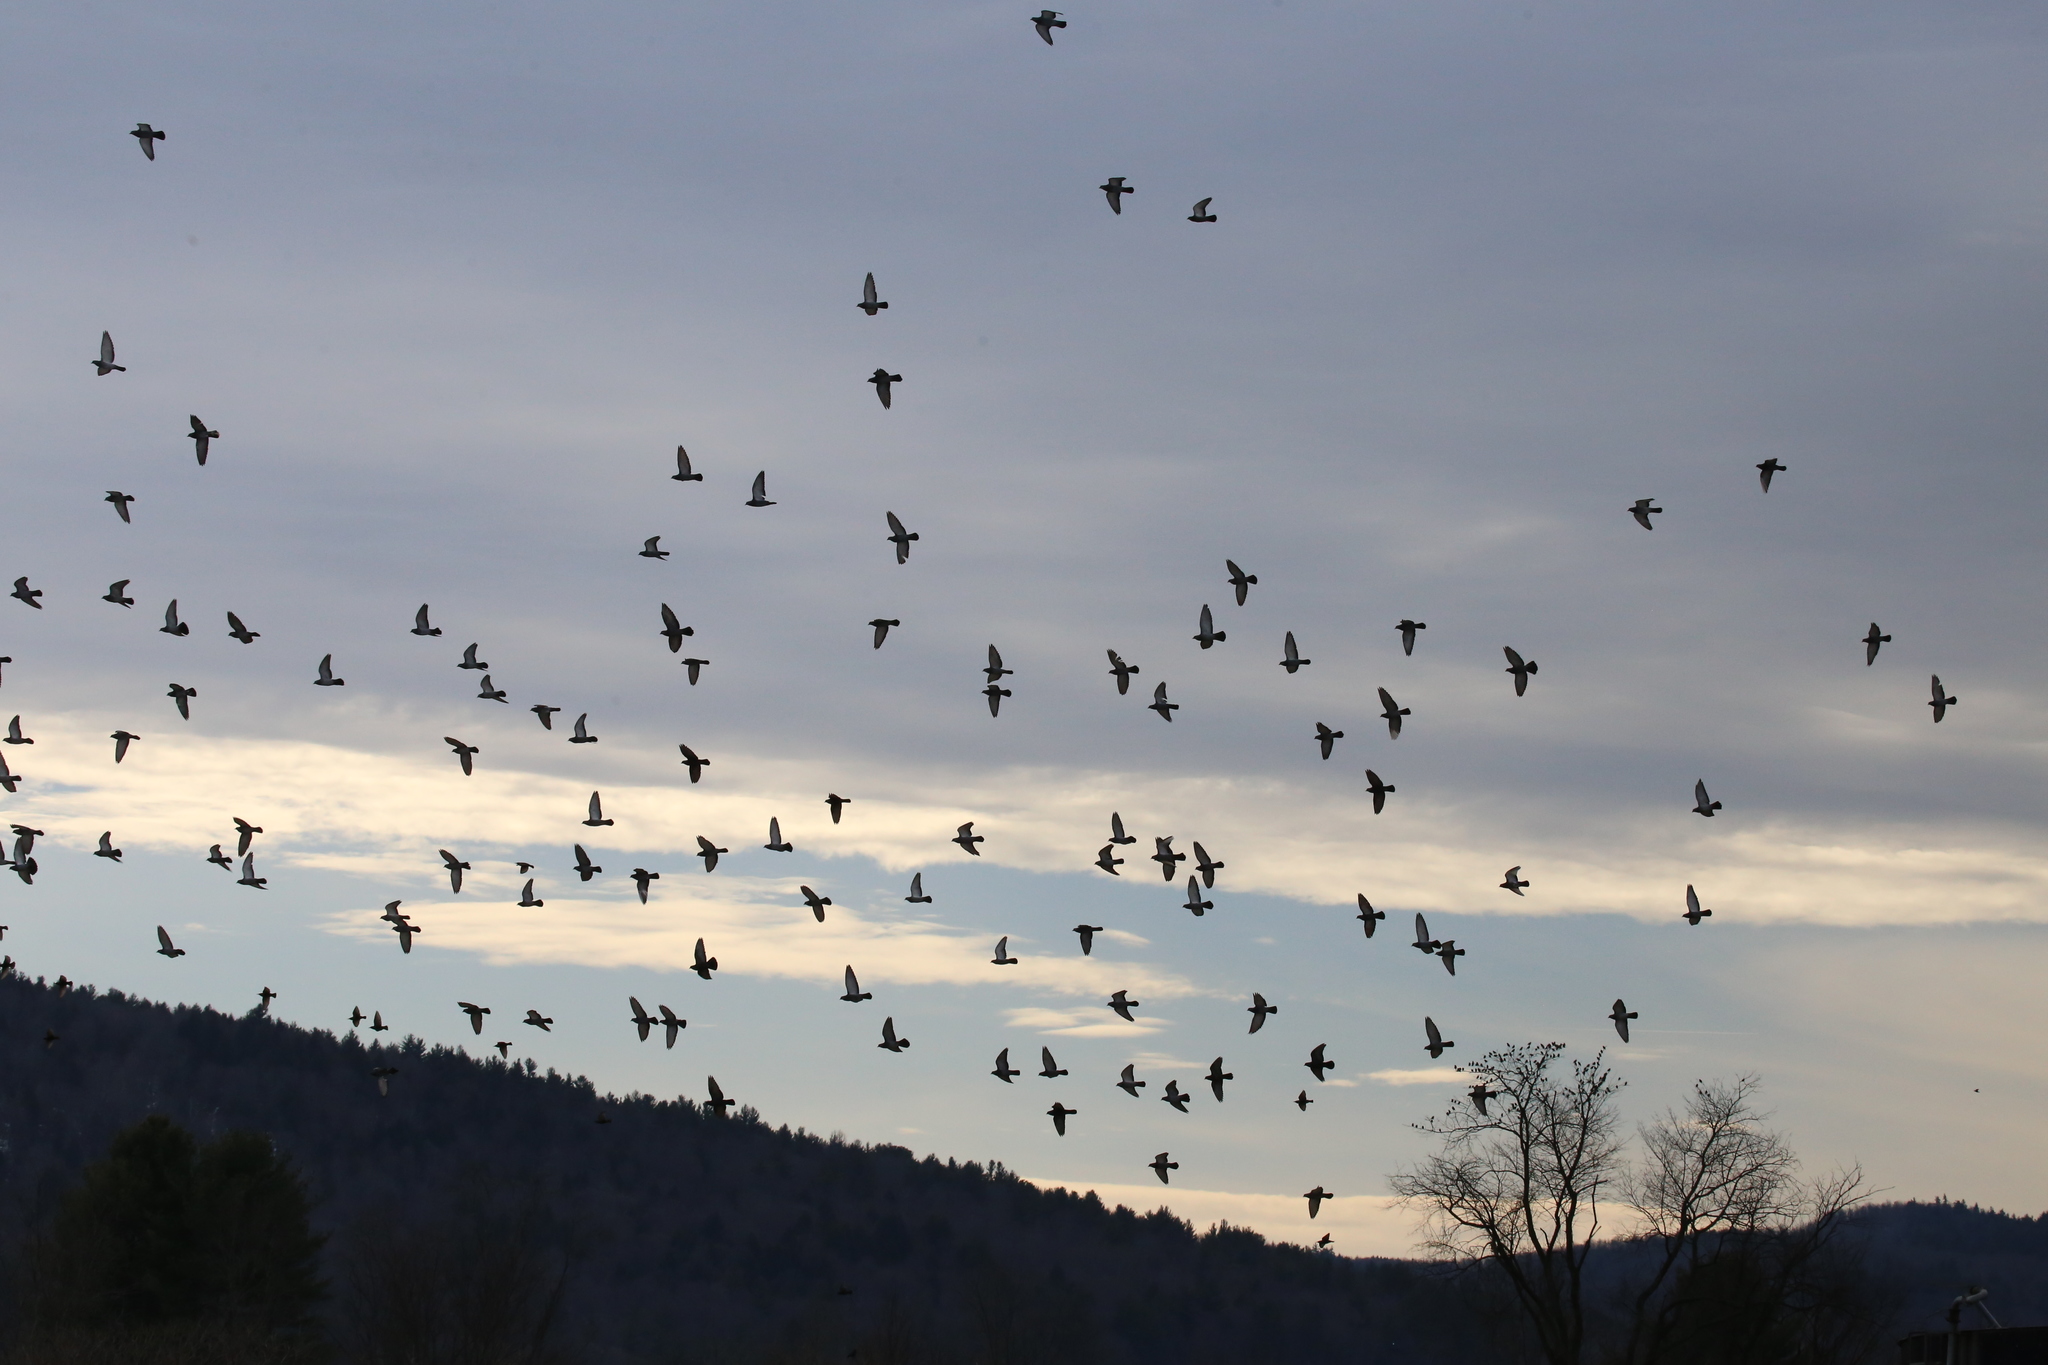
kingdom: Animalia
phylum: Chordata
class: Aves
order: Columbiformes
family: Columbidae
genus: Columba
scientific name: Columba livia
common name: Rock pigeon
